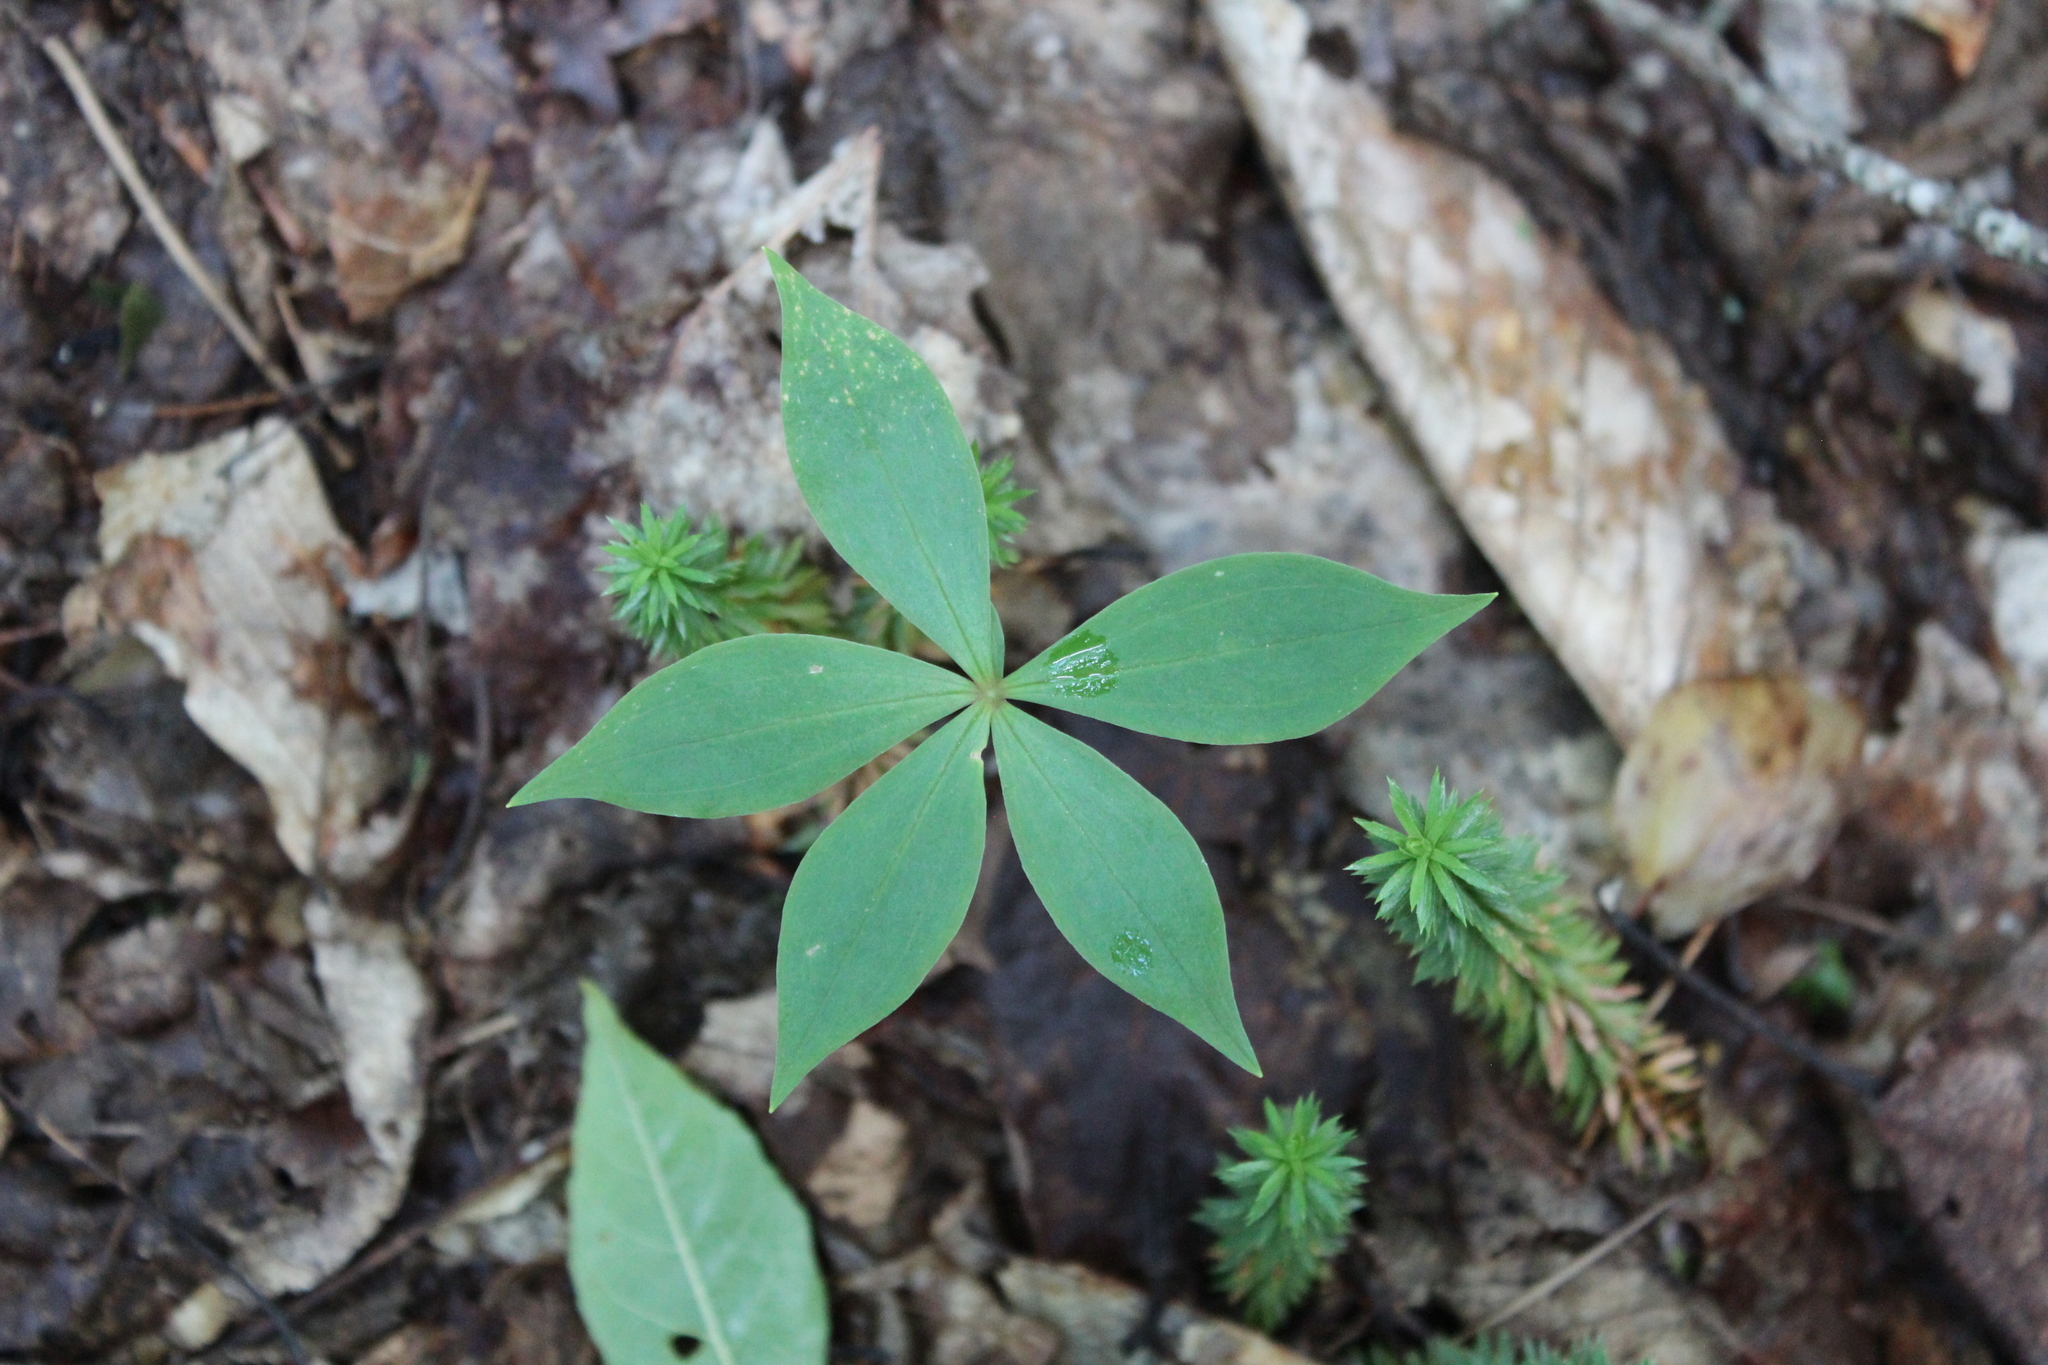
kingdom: Plantae
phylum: Tracheophyta
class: Liliopsida
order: Liliales
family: Liliaceae
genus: Medeola
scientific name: Medeola virginiana
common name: Indian cucumber-root
